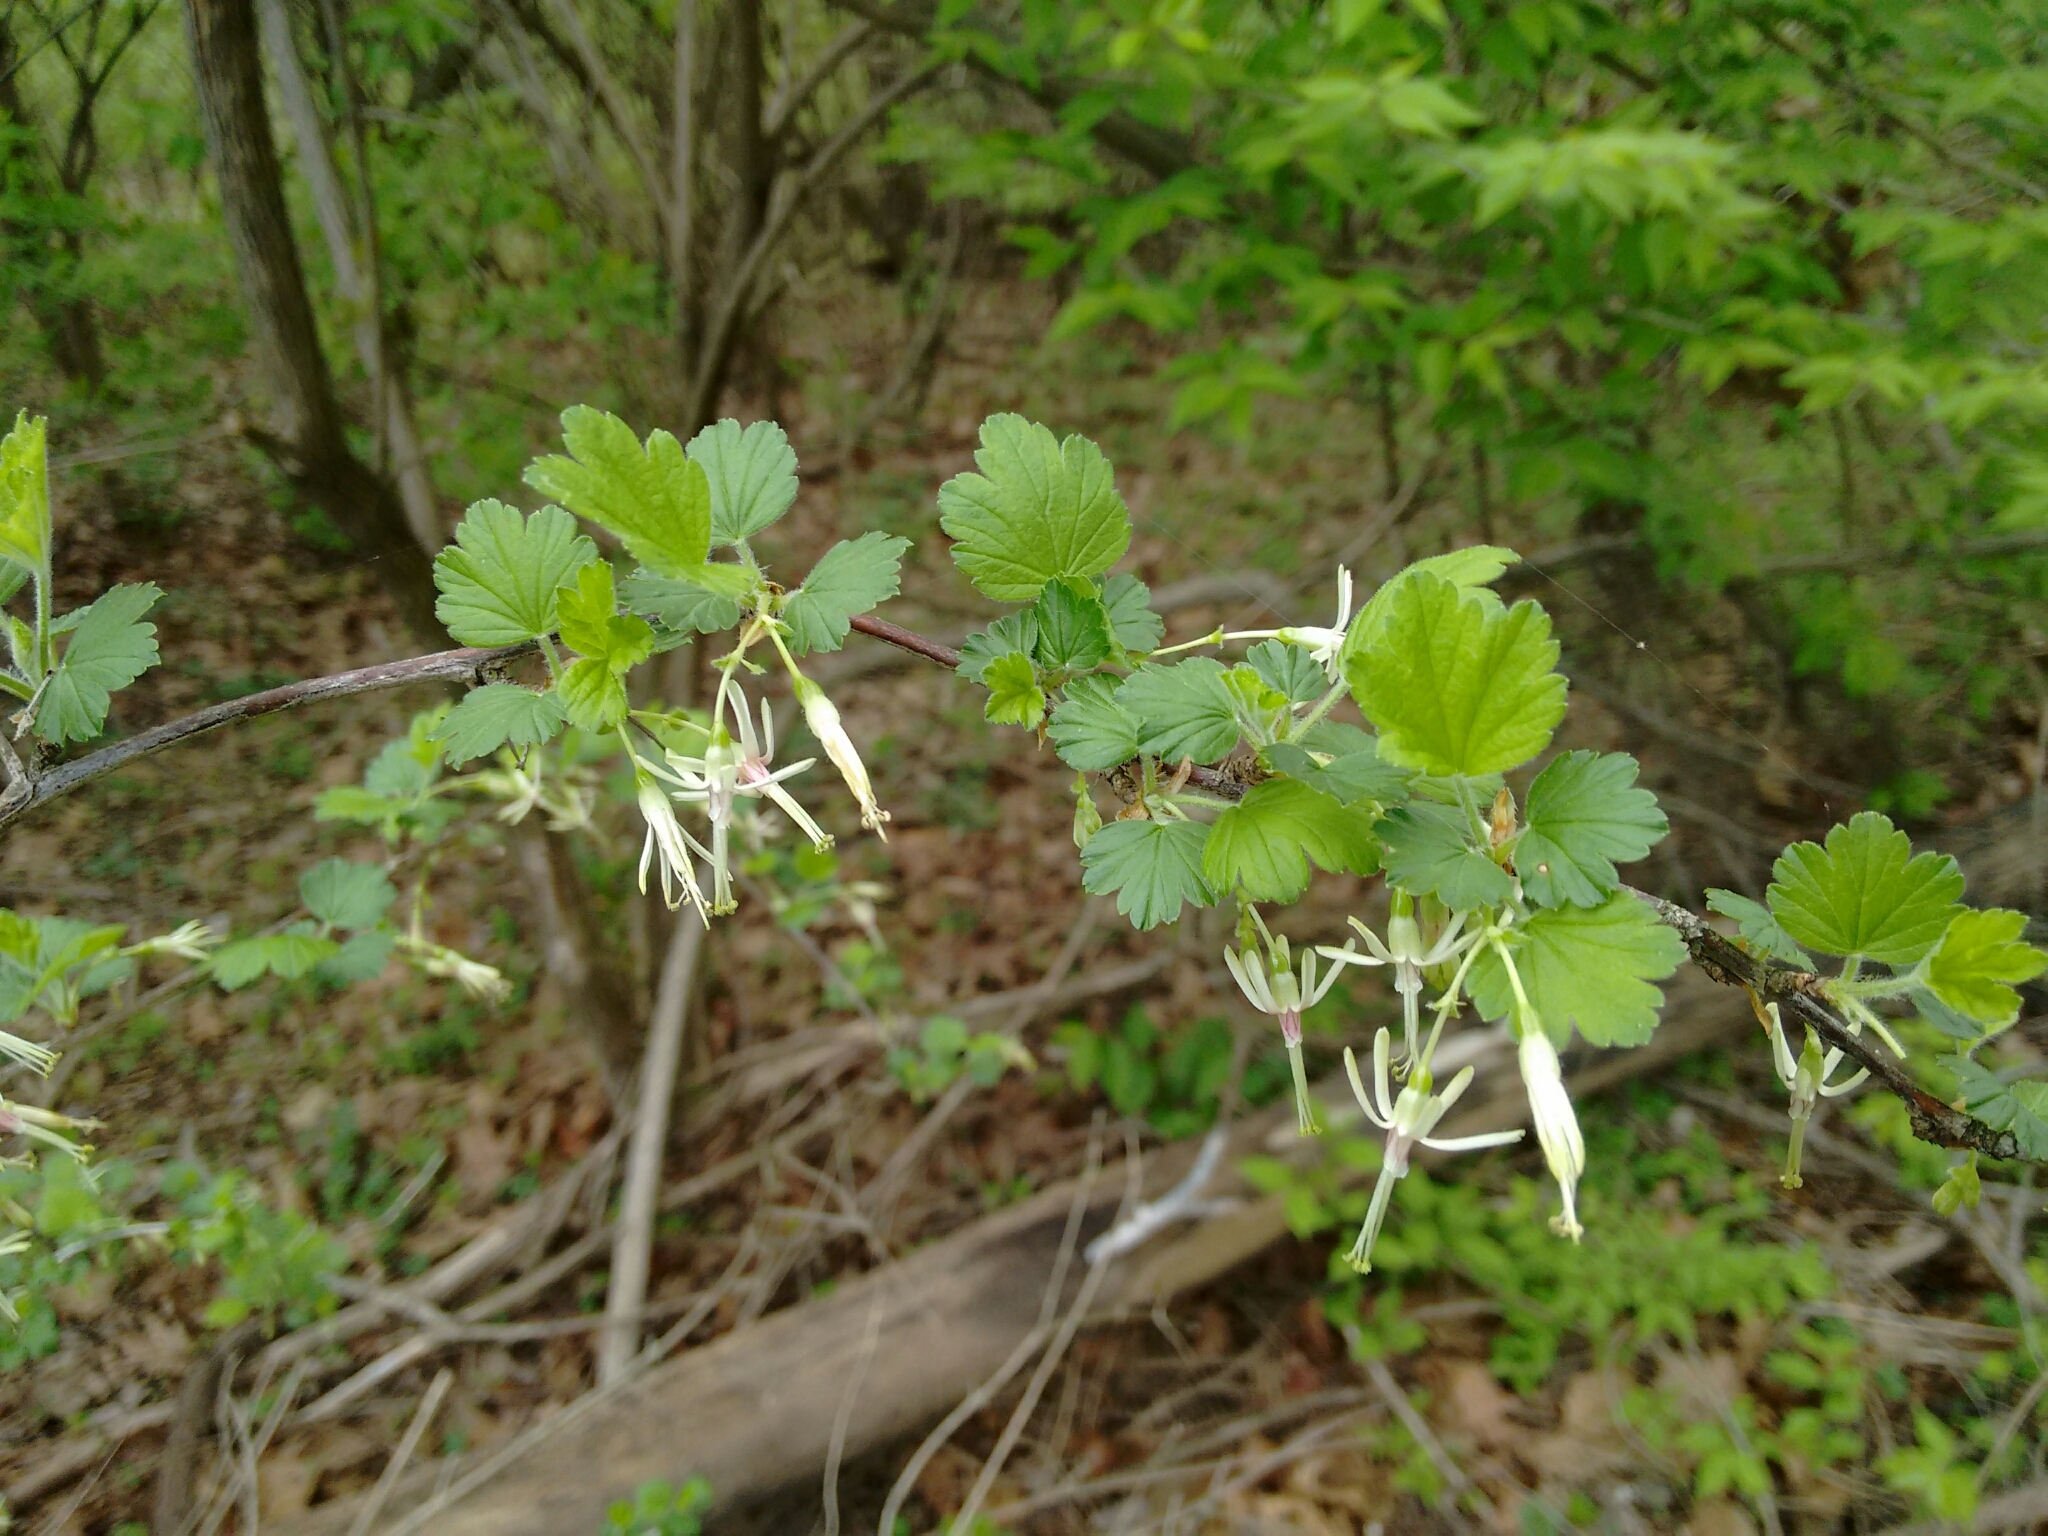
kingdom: Plantae
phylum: Tracheophyta
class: Magnoliopsida
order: Saxifragales
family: Grossulariaceae
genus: Ribes
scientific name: Ribes missouriense
